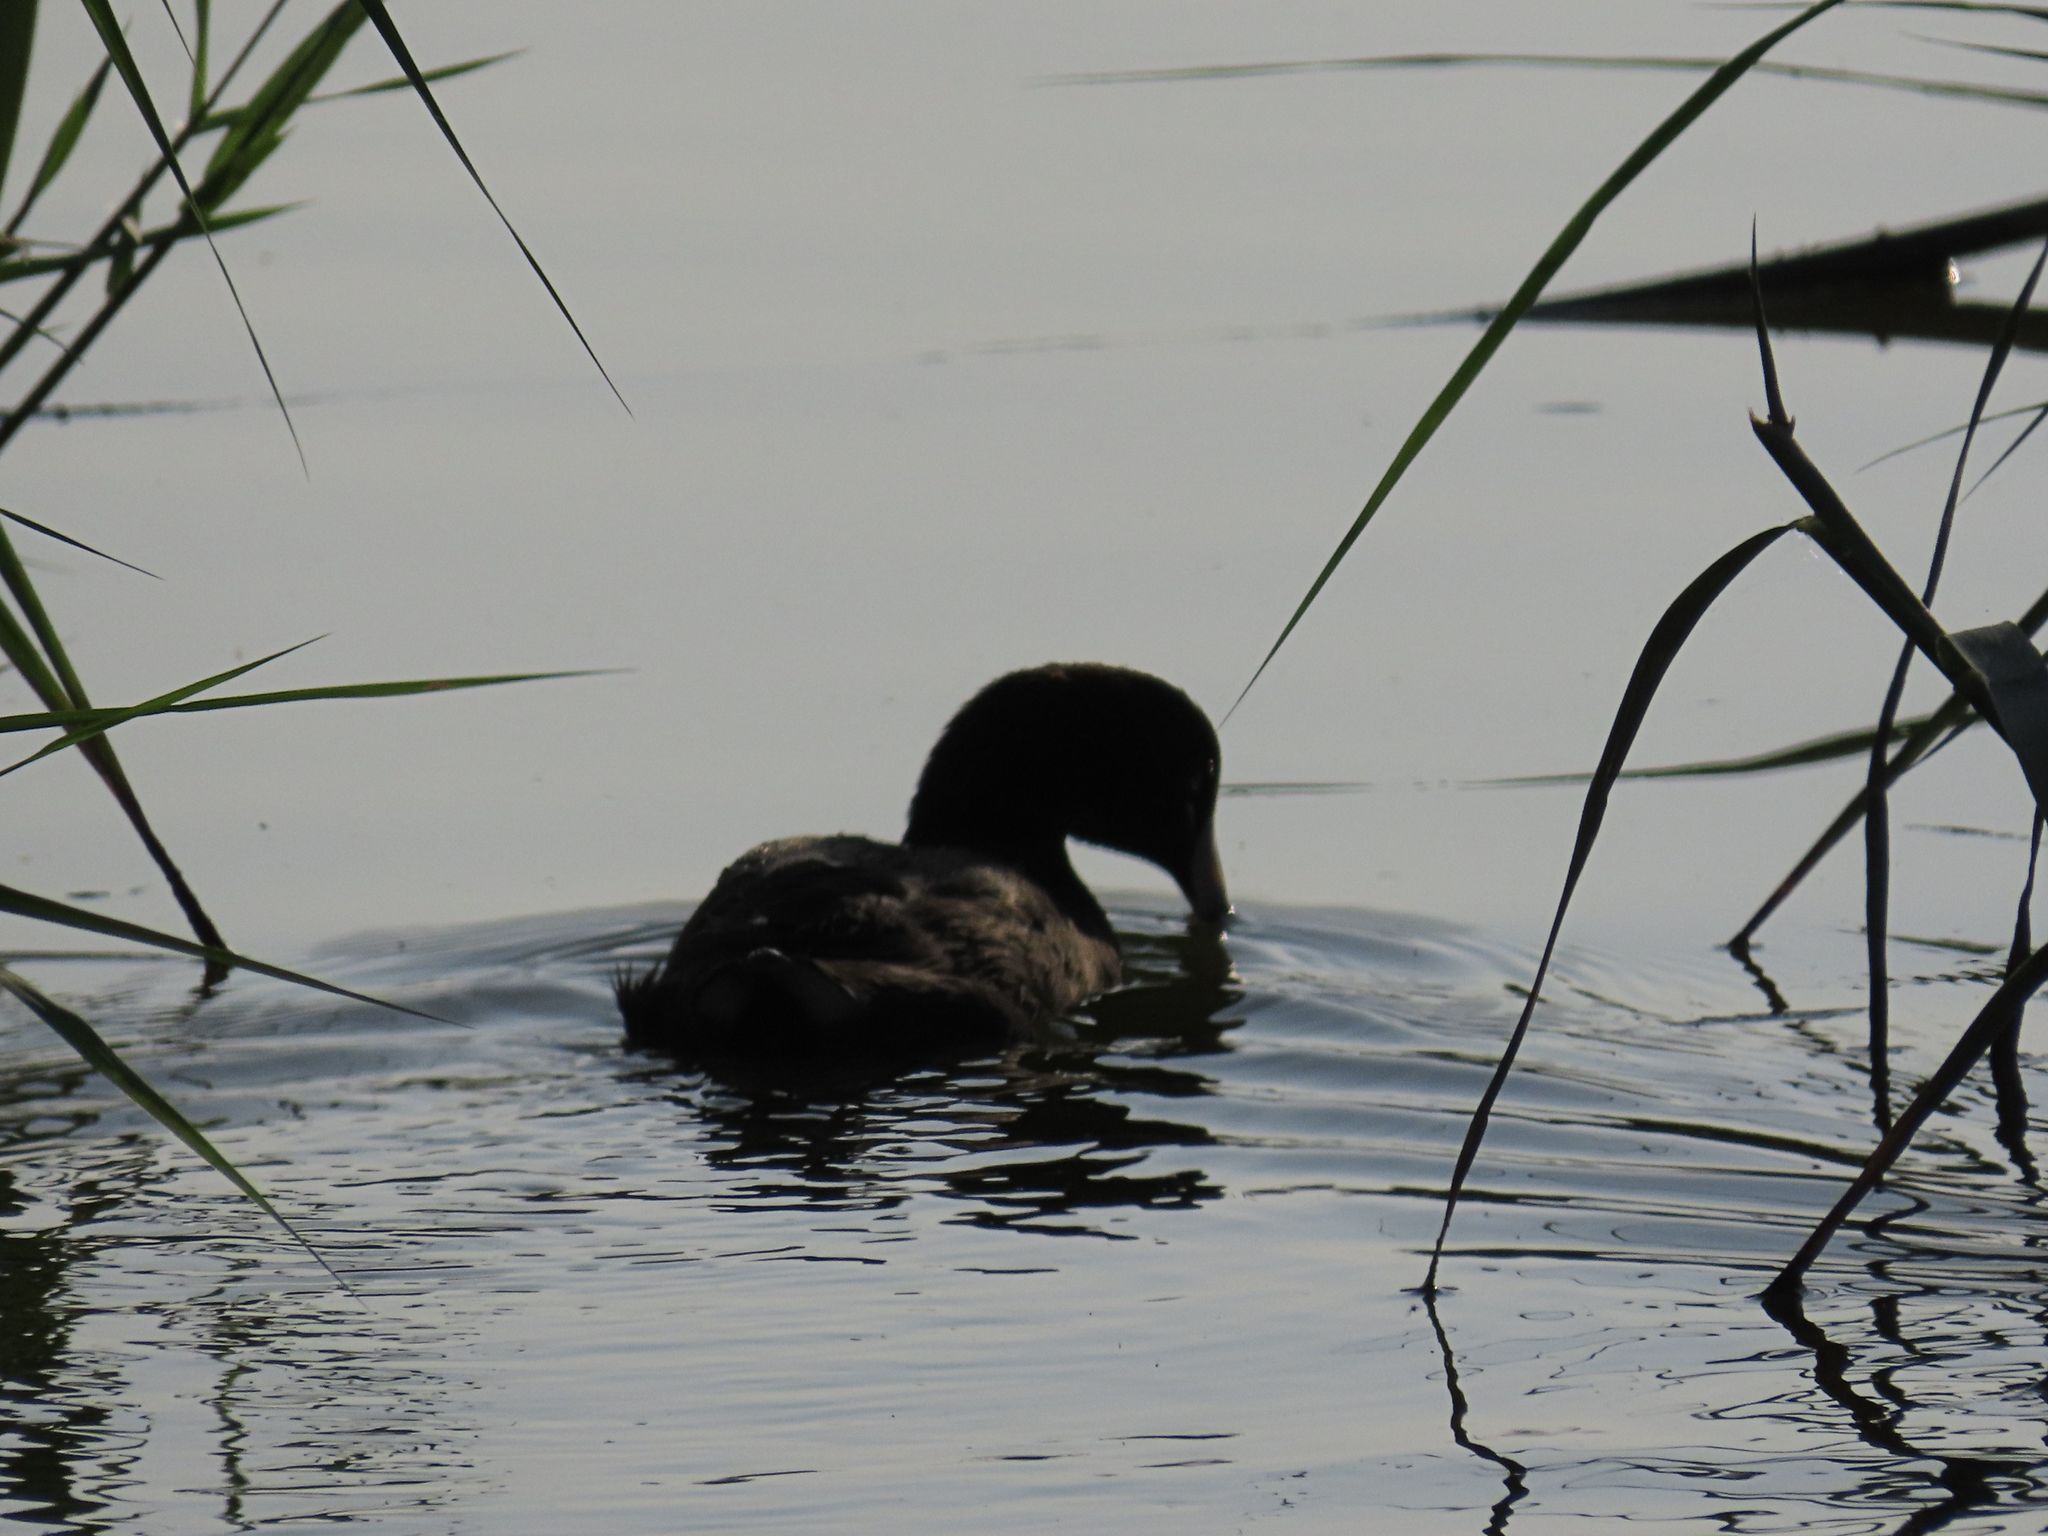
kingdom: Animalia
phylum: Chordata
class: Aves
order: Gruiformes
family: Rallidae
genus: Fulica
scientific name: Fulica americana
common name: American coot
